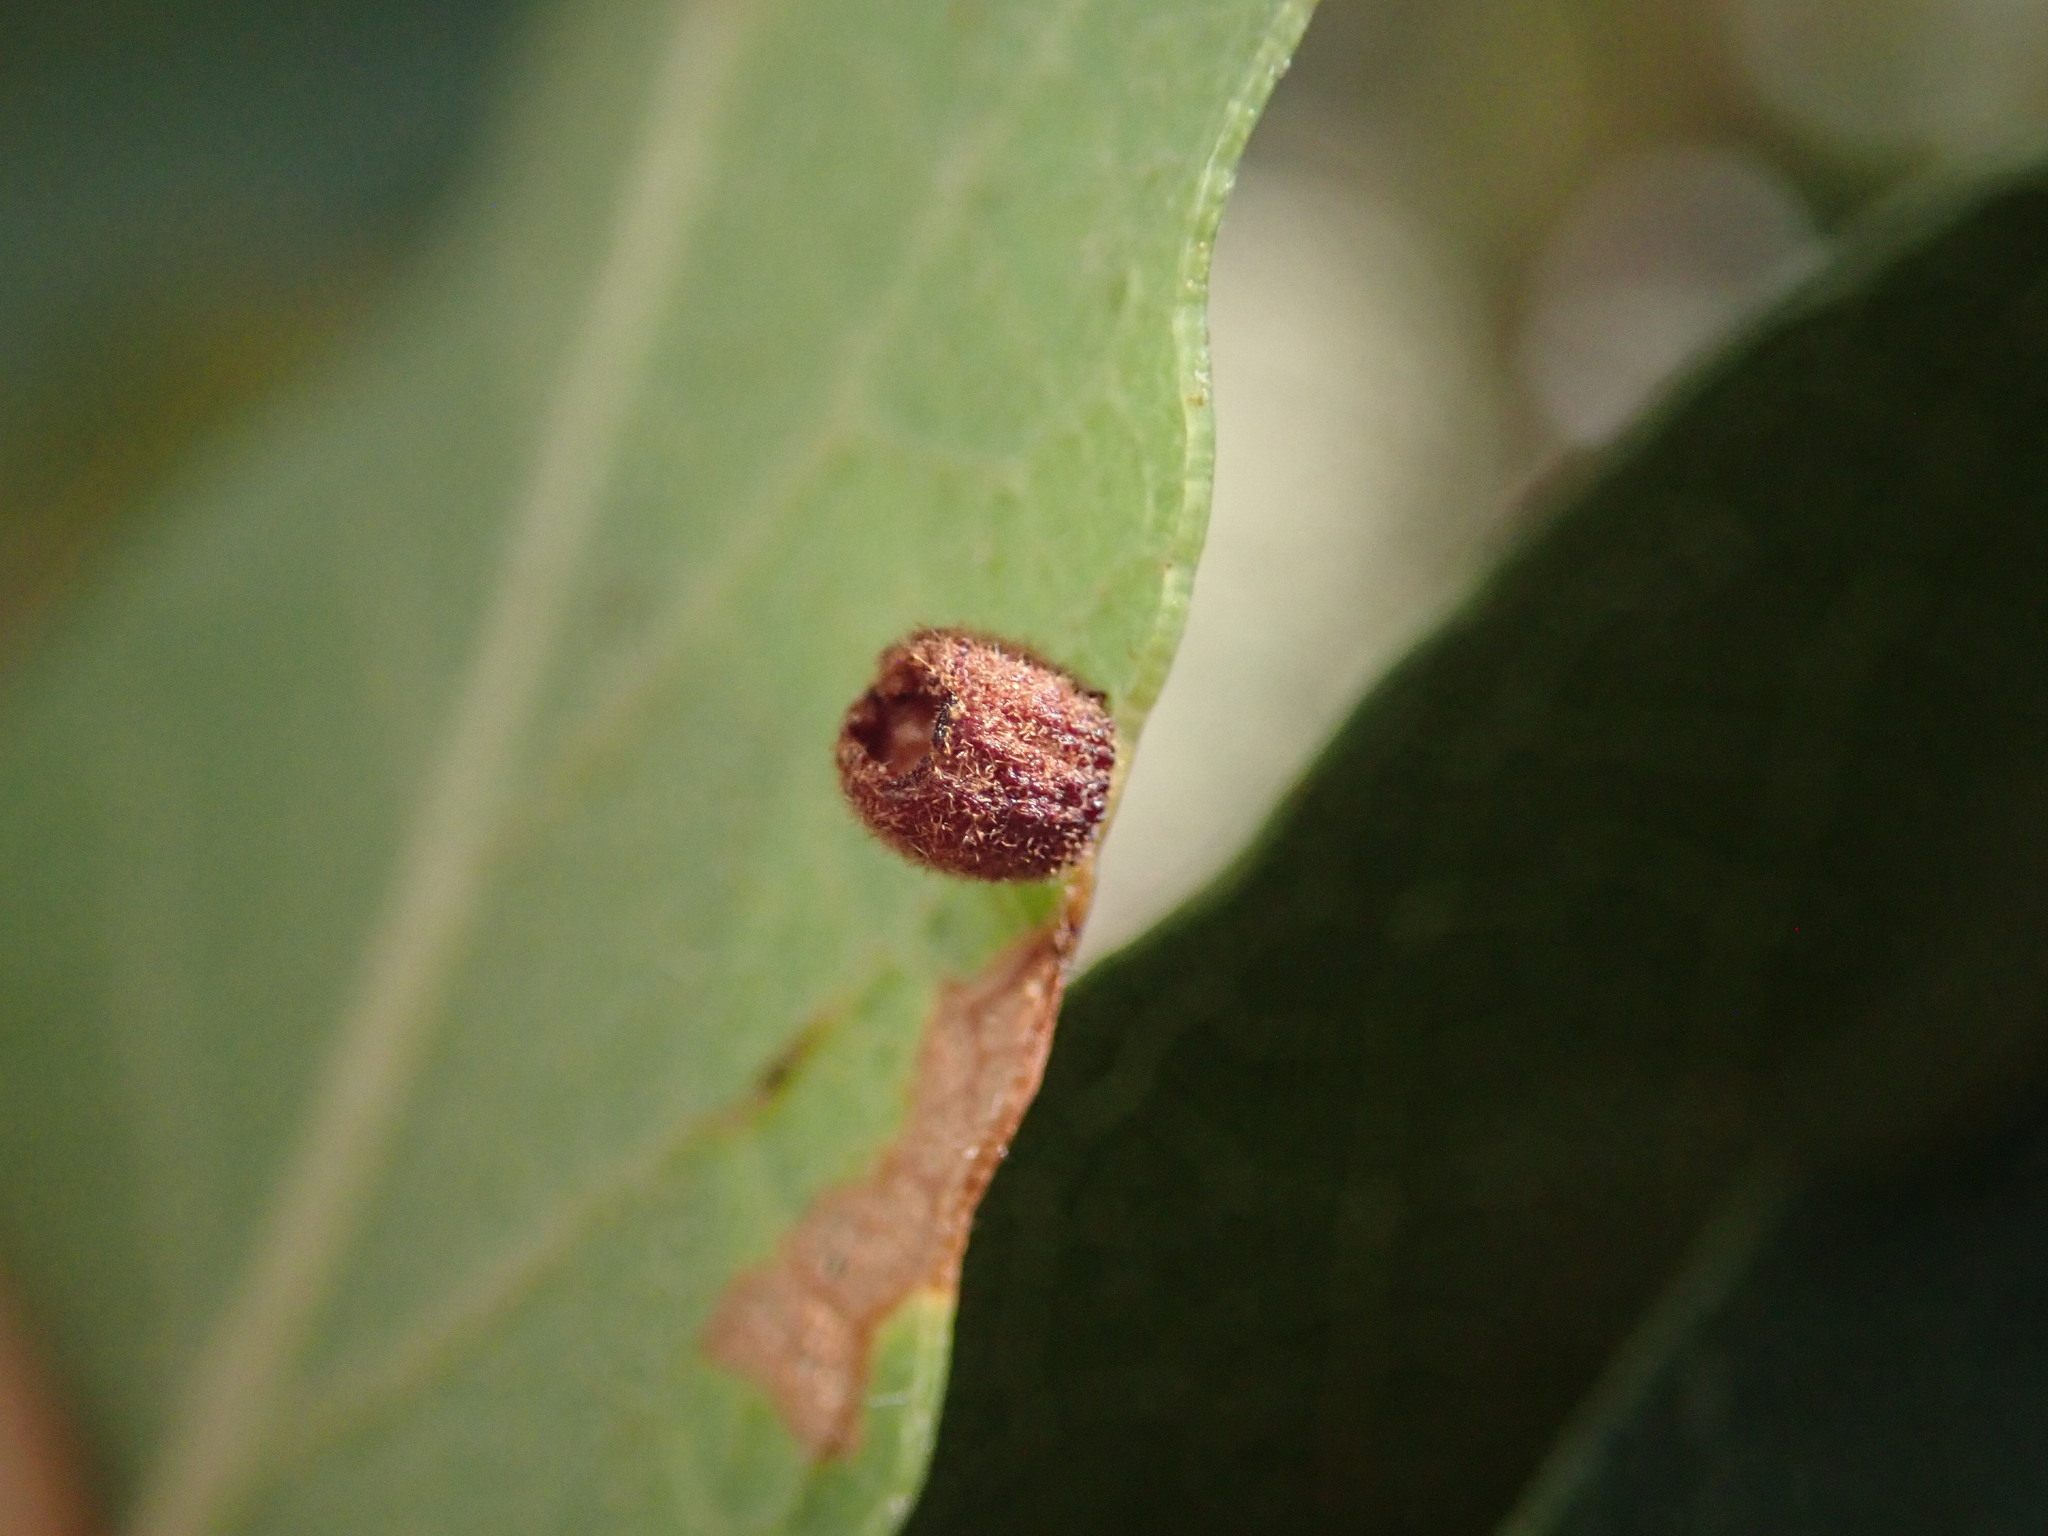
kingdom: Animalia
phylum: Arthropoda
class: Insecta
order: Hymenoptera
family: Cynipidae
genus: Phylloteras
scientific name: Phylloteras
